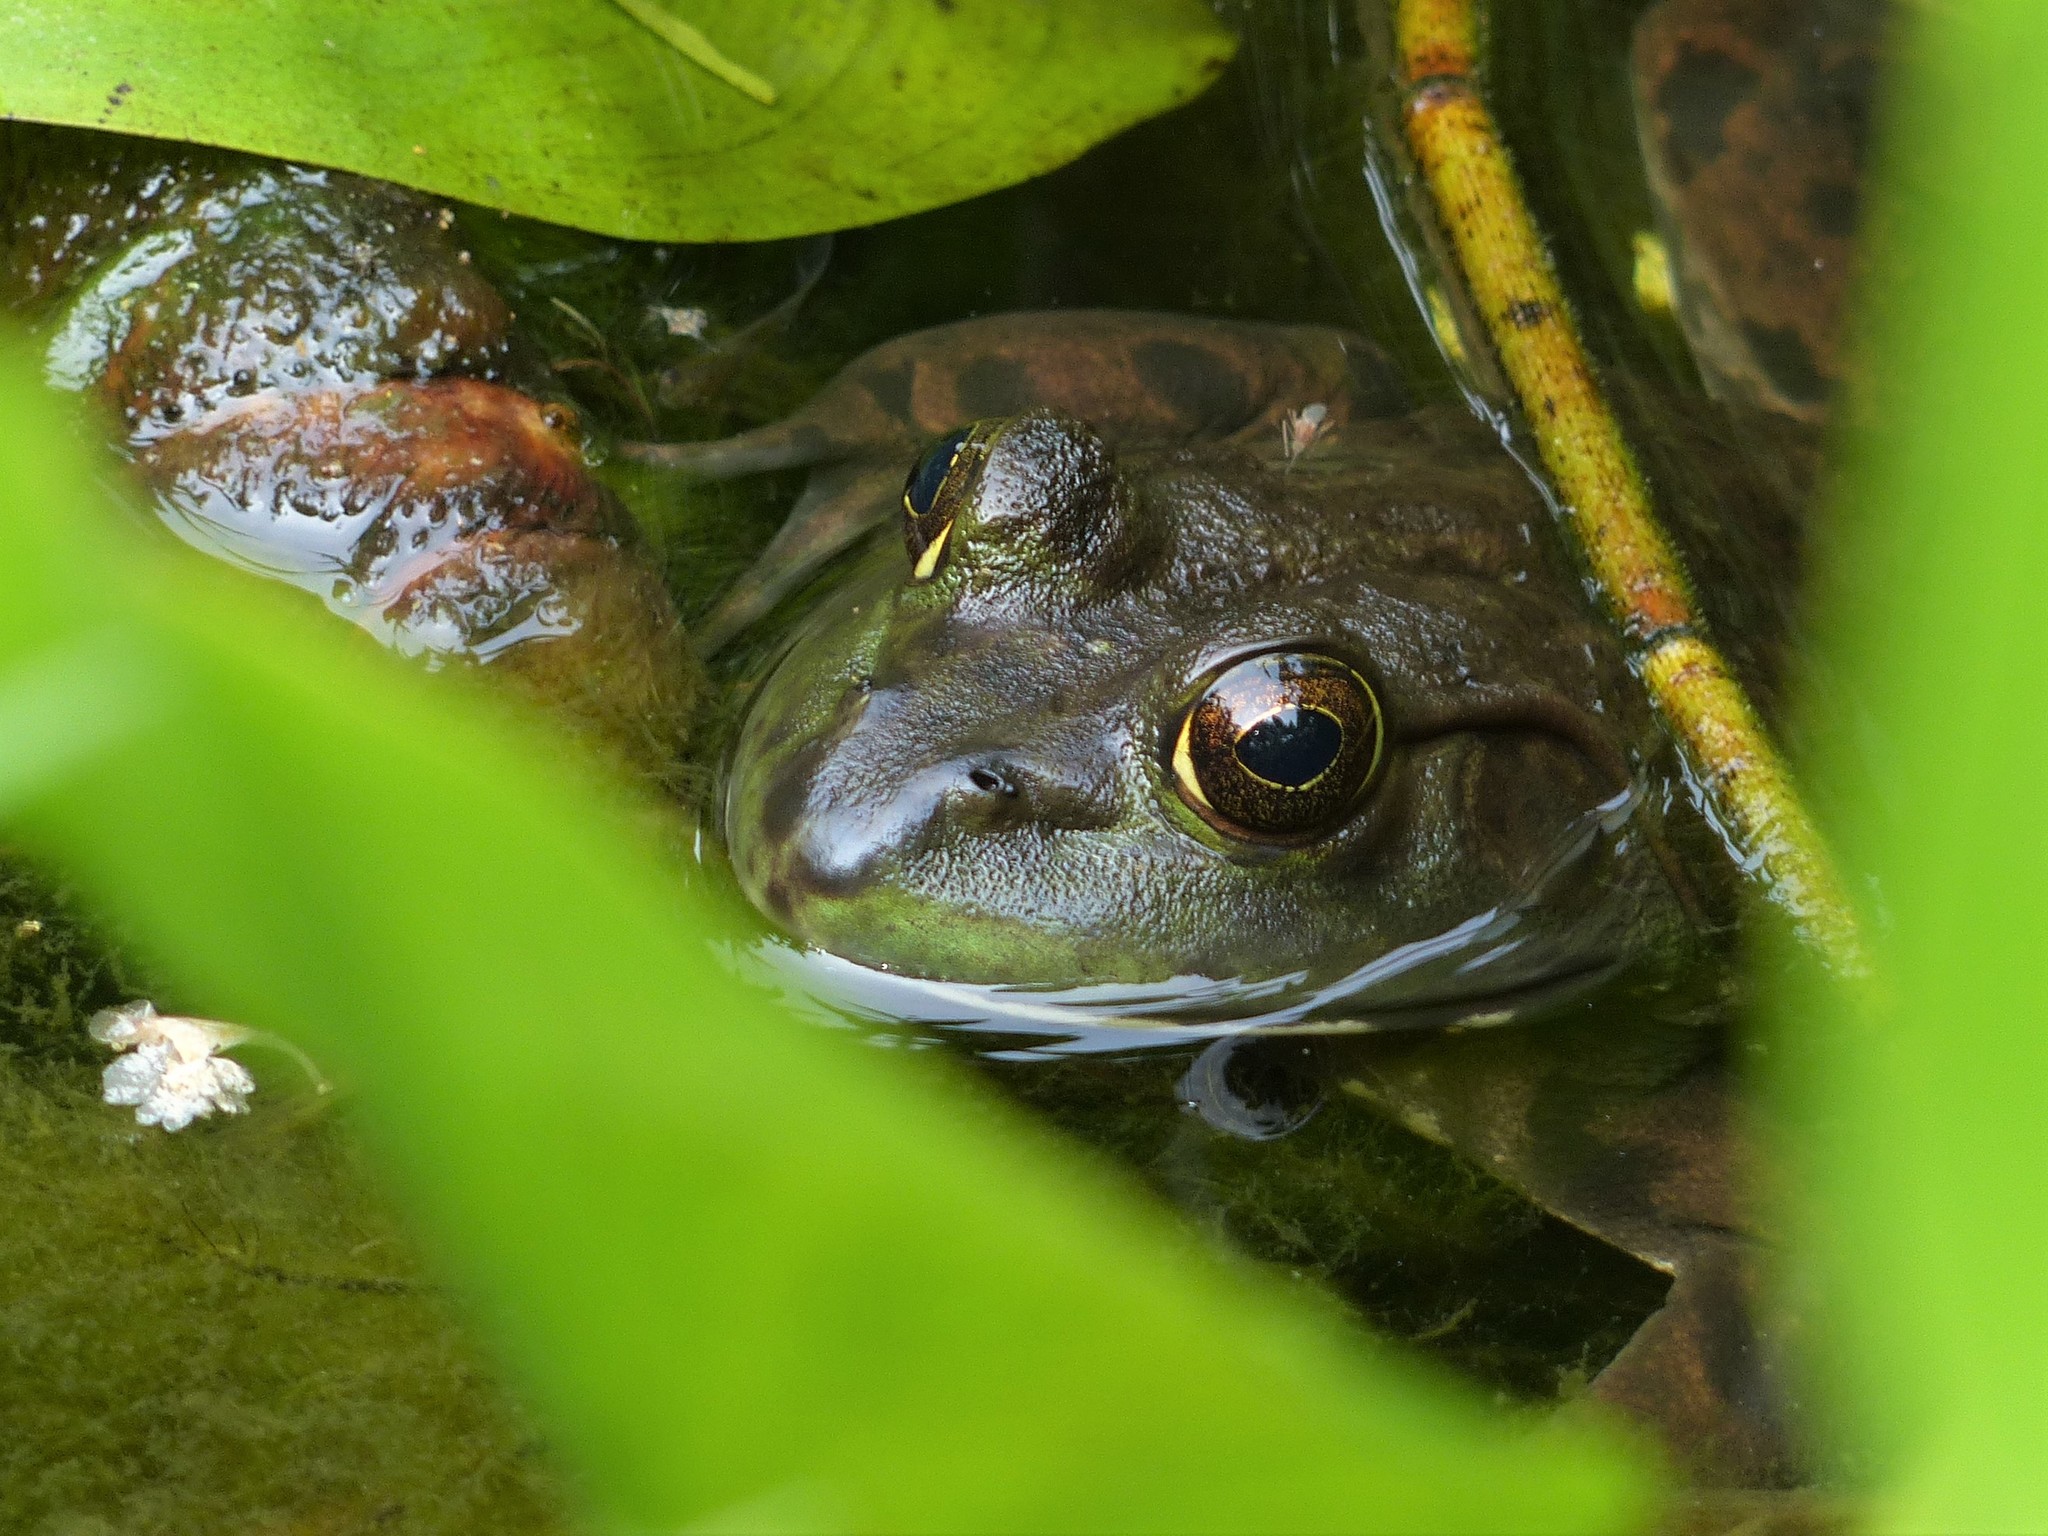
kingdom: Animalia
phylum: Chordata
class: Amphibia
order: Anura
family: Ranidae
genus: Lithobates
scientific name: Lithobates catesbeianus
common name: American bullfrog
